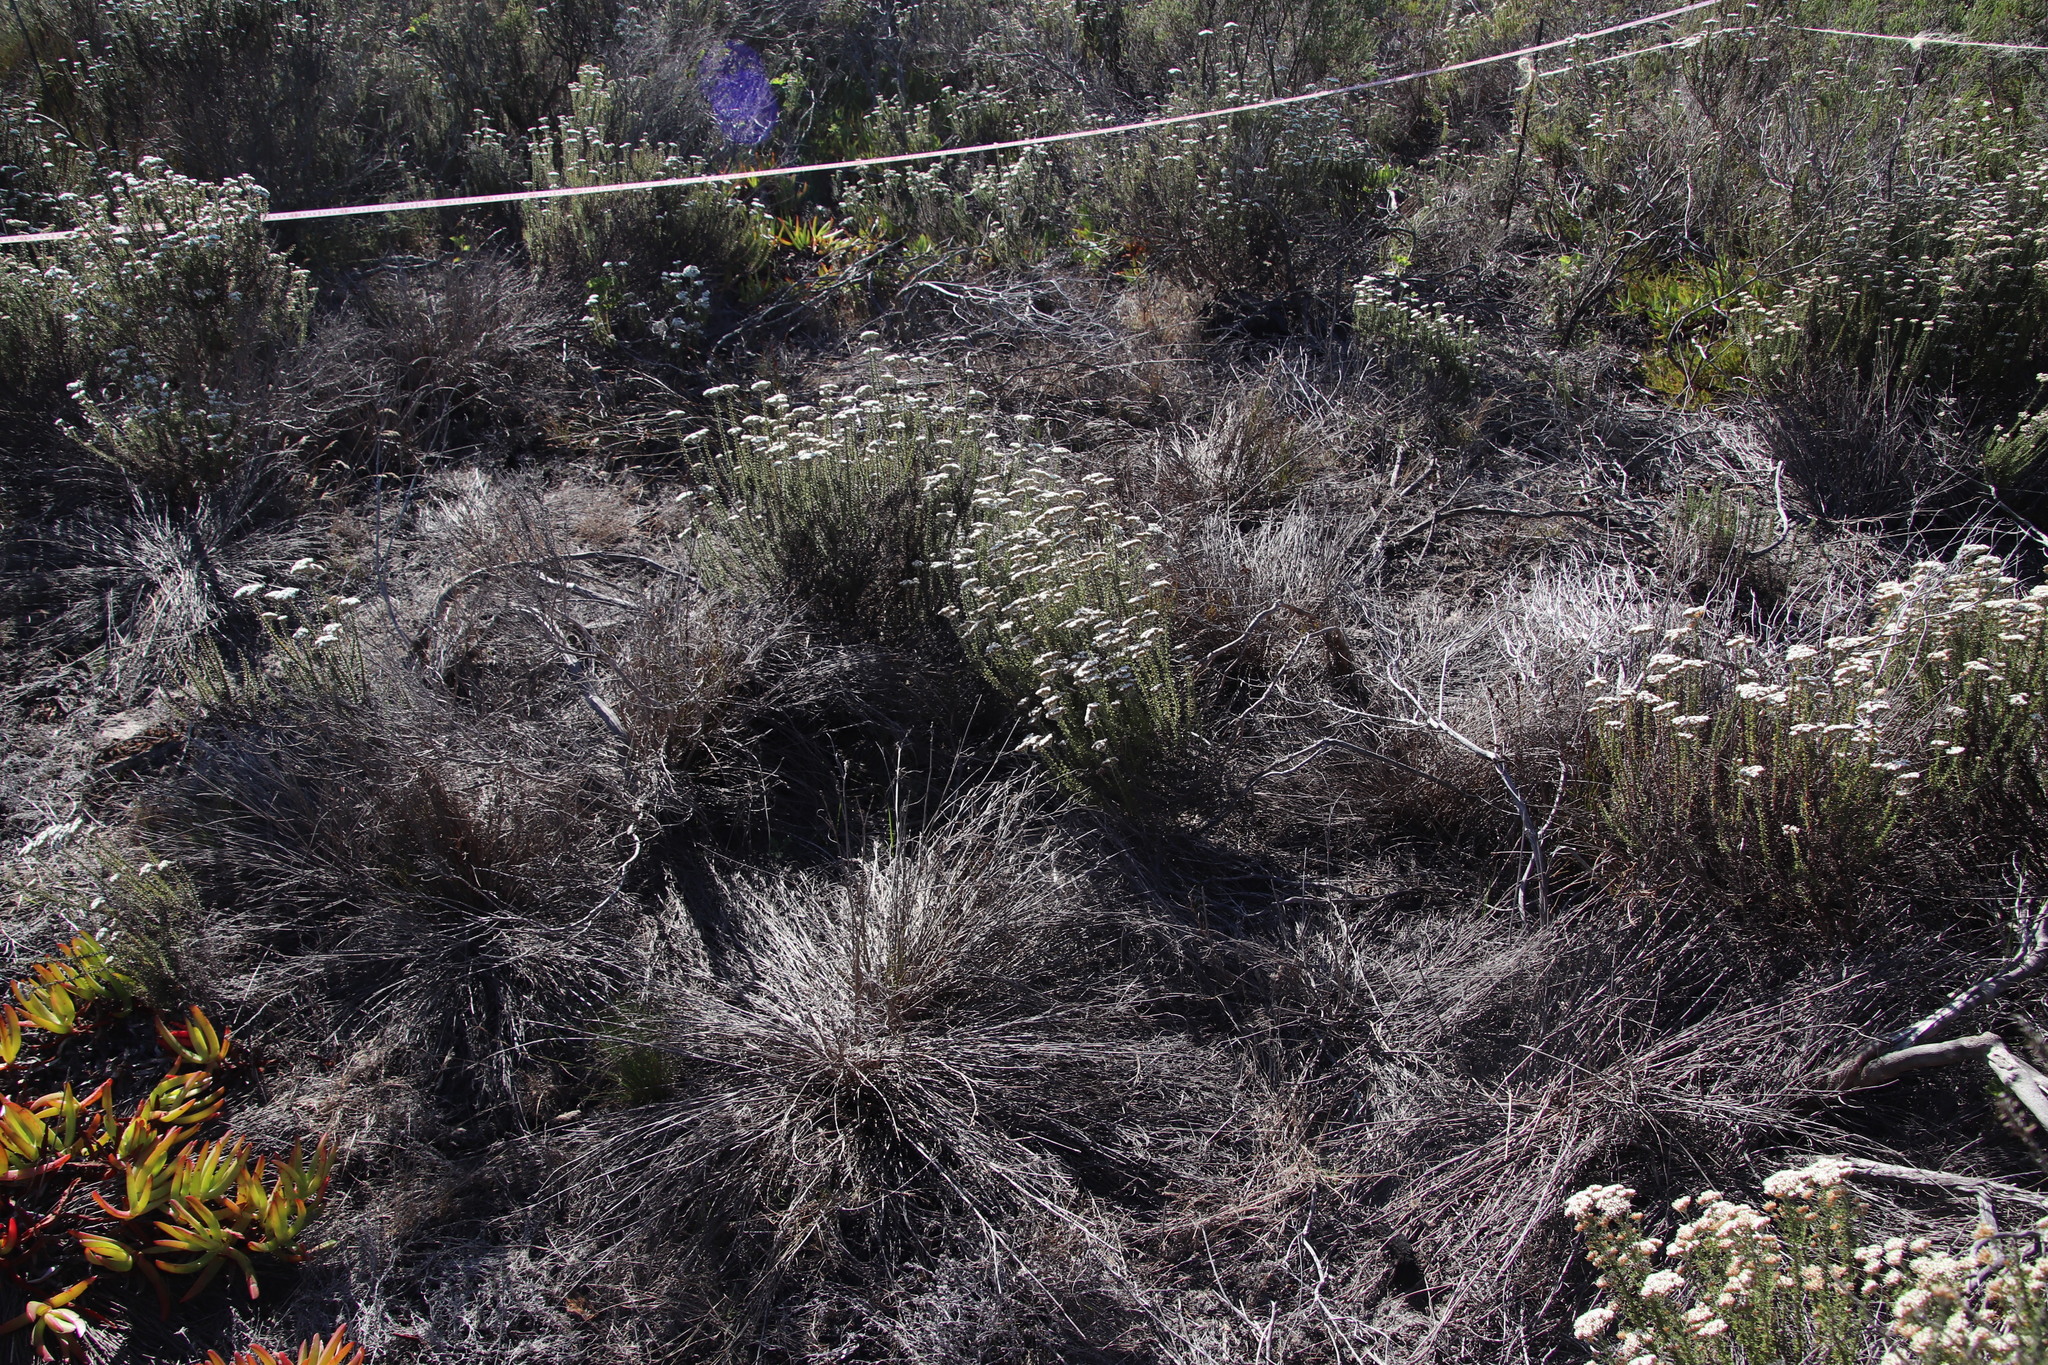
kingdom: Plantae
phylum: Tracheophyta
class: Liliopsida
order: Poales
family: Restionaceae
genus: Restio
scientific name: Restio bifurcus
